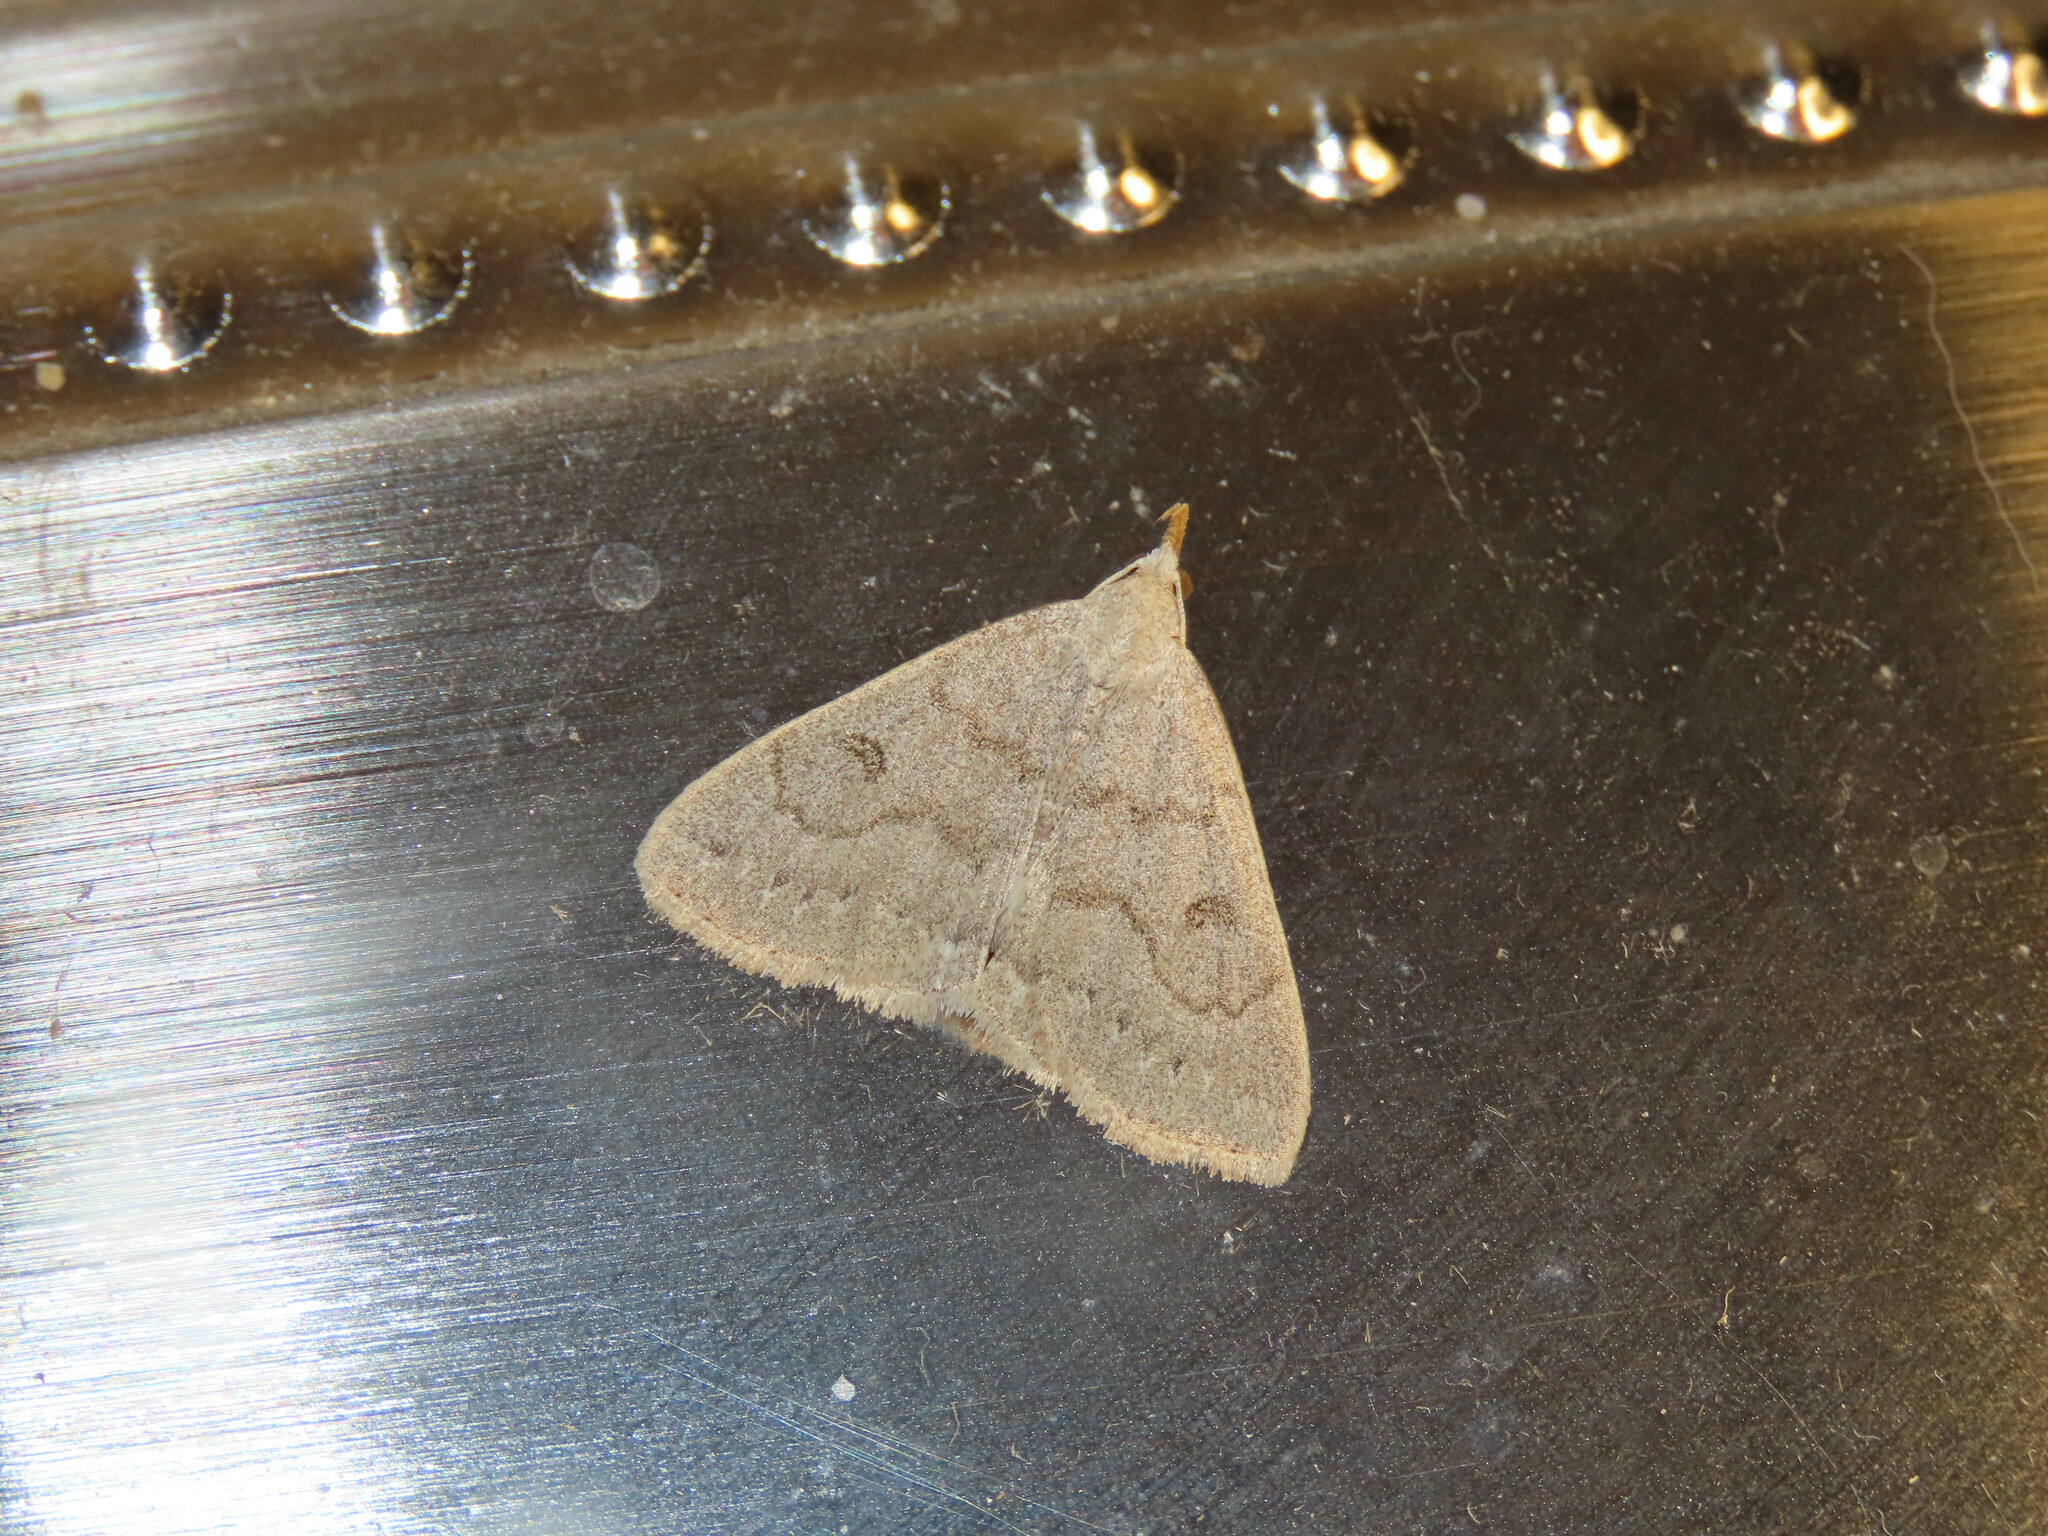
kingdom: Animalia
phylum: Arthropoda
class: Insecta
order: Lepidoptera
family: Erebidae
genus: Macrochilo
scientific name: Macrochilo morbidalis
